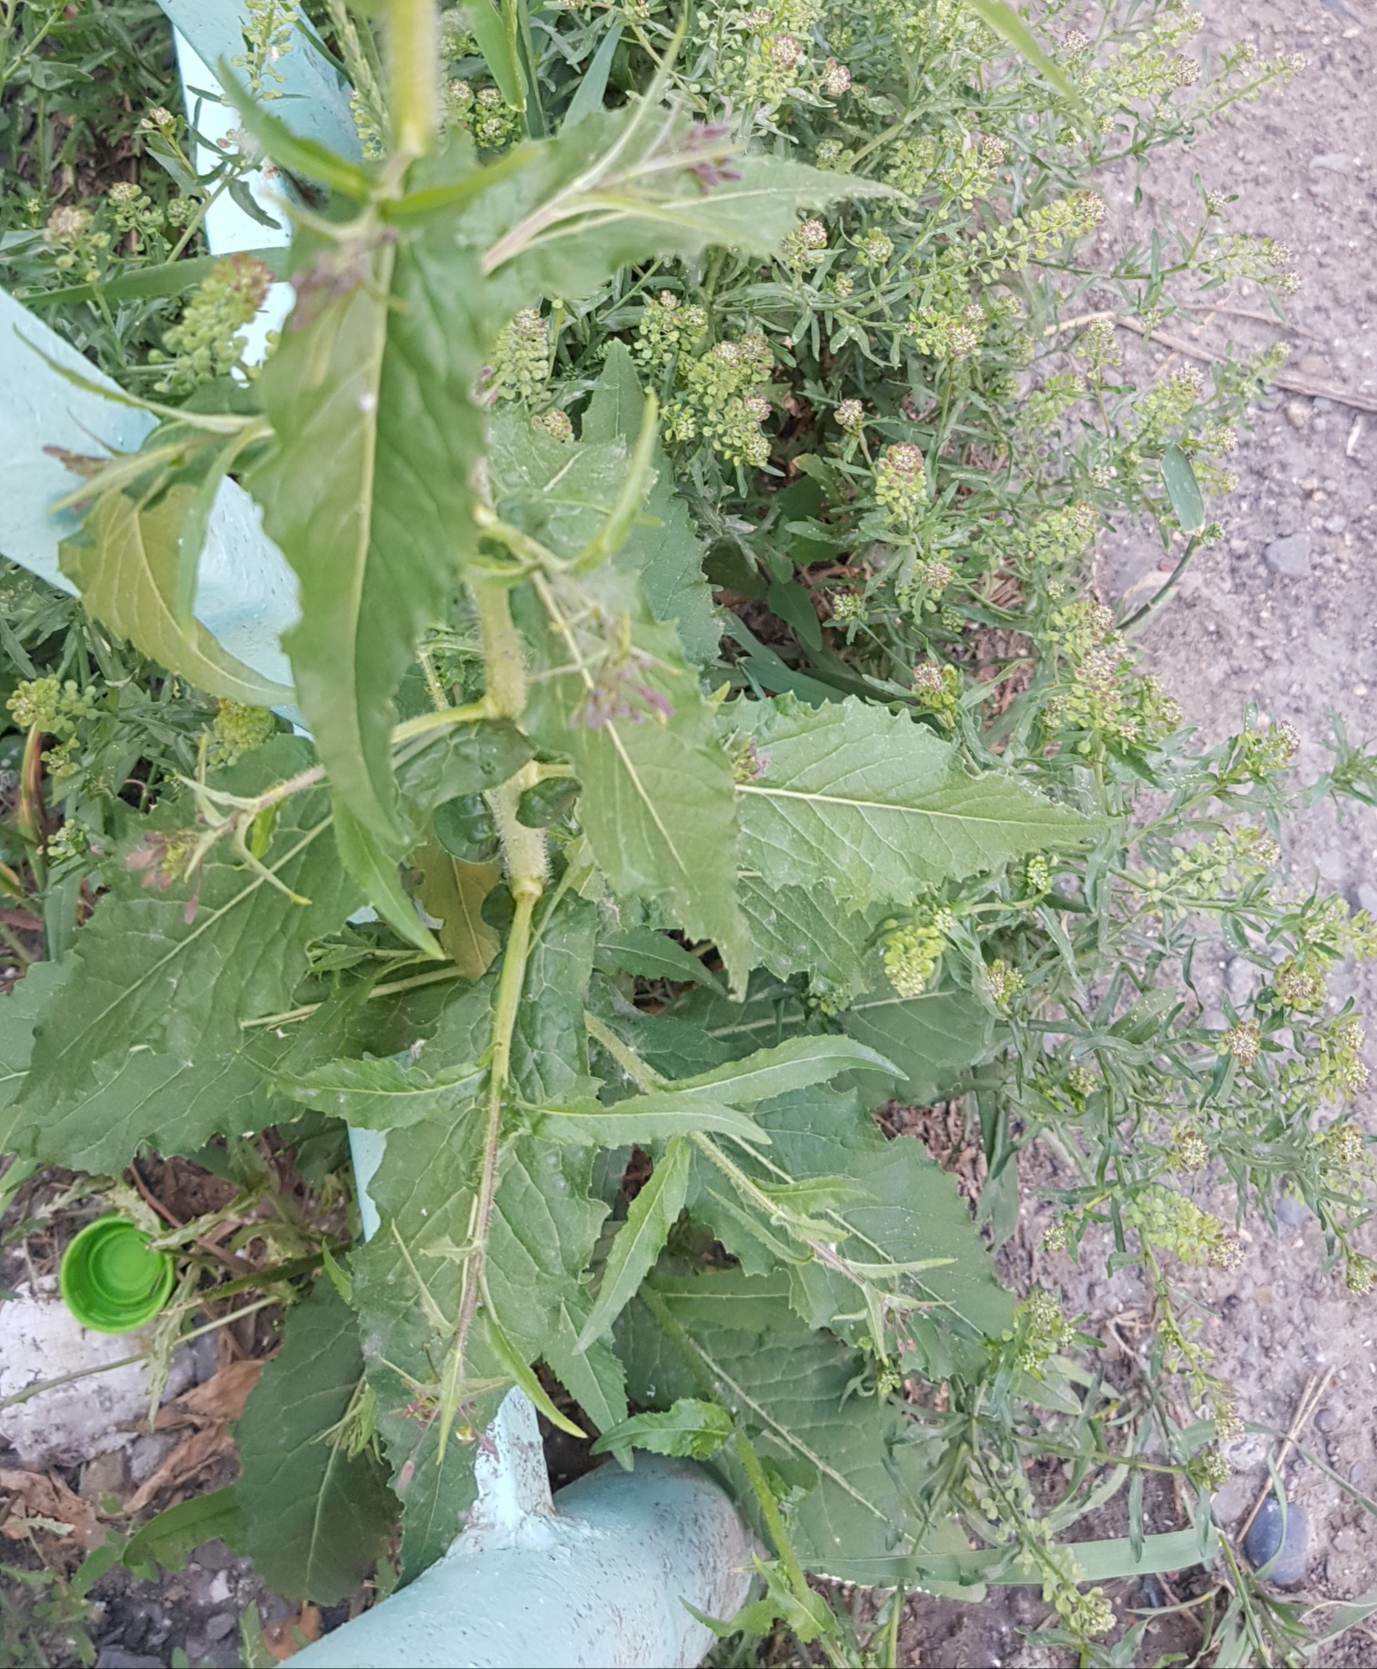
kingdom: Plantae
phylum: Tracheophyta
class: Magnoliopsida
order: Brassicales
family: Brassicaceae
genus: Catolobus
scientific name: Catolobus pendulus
